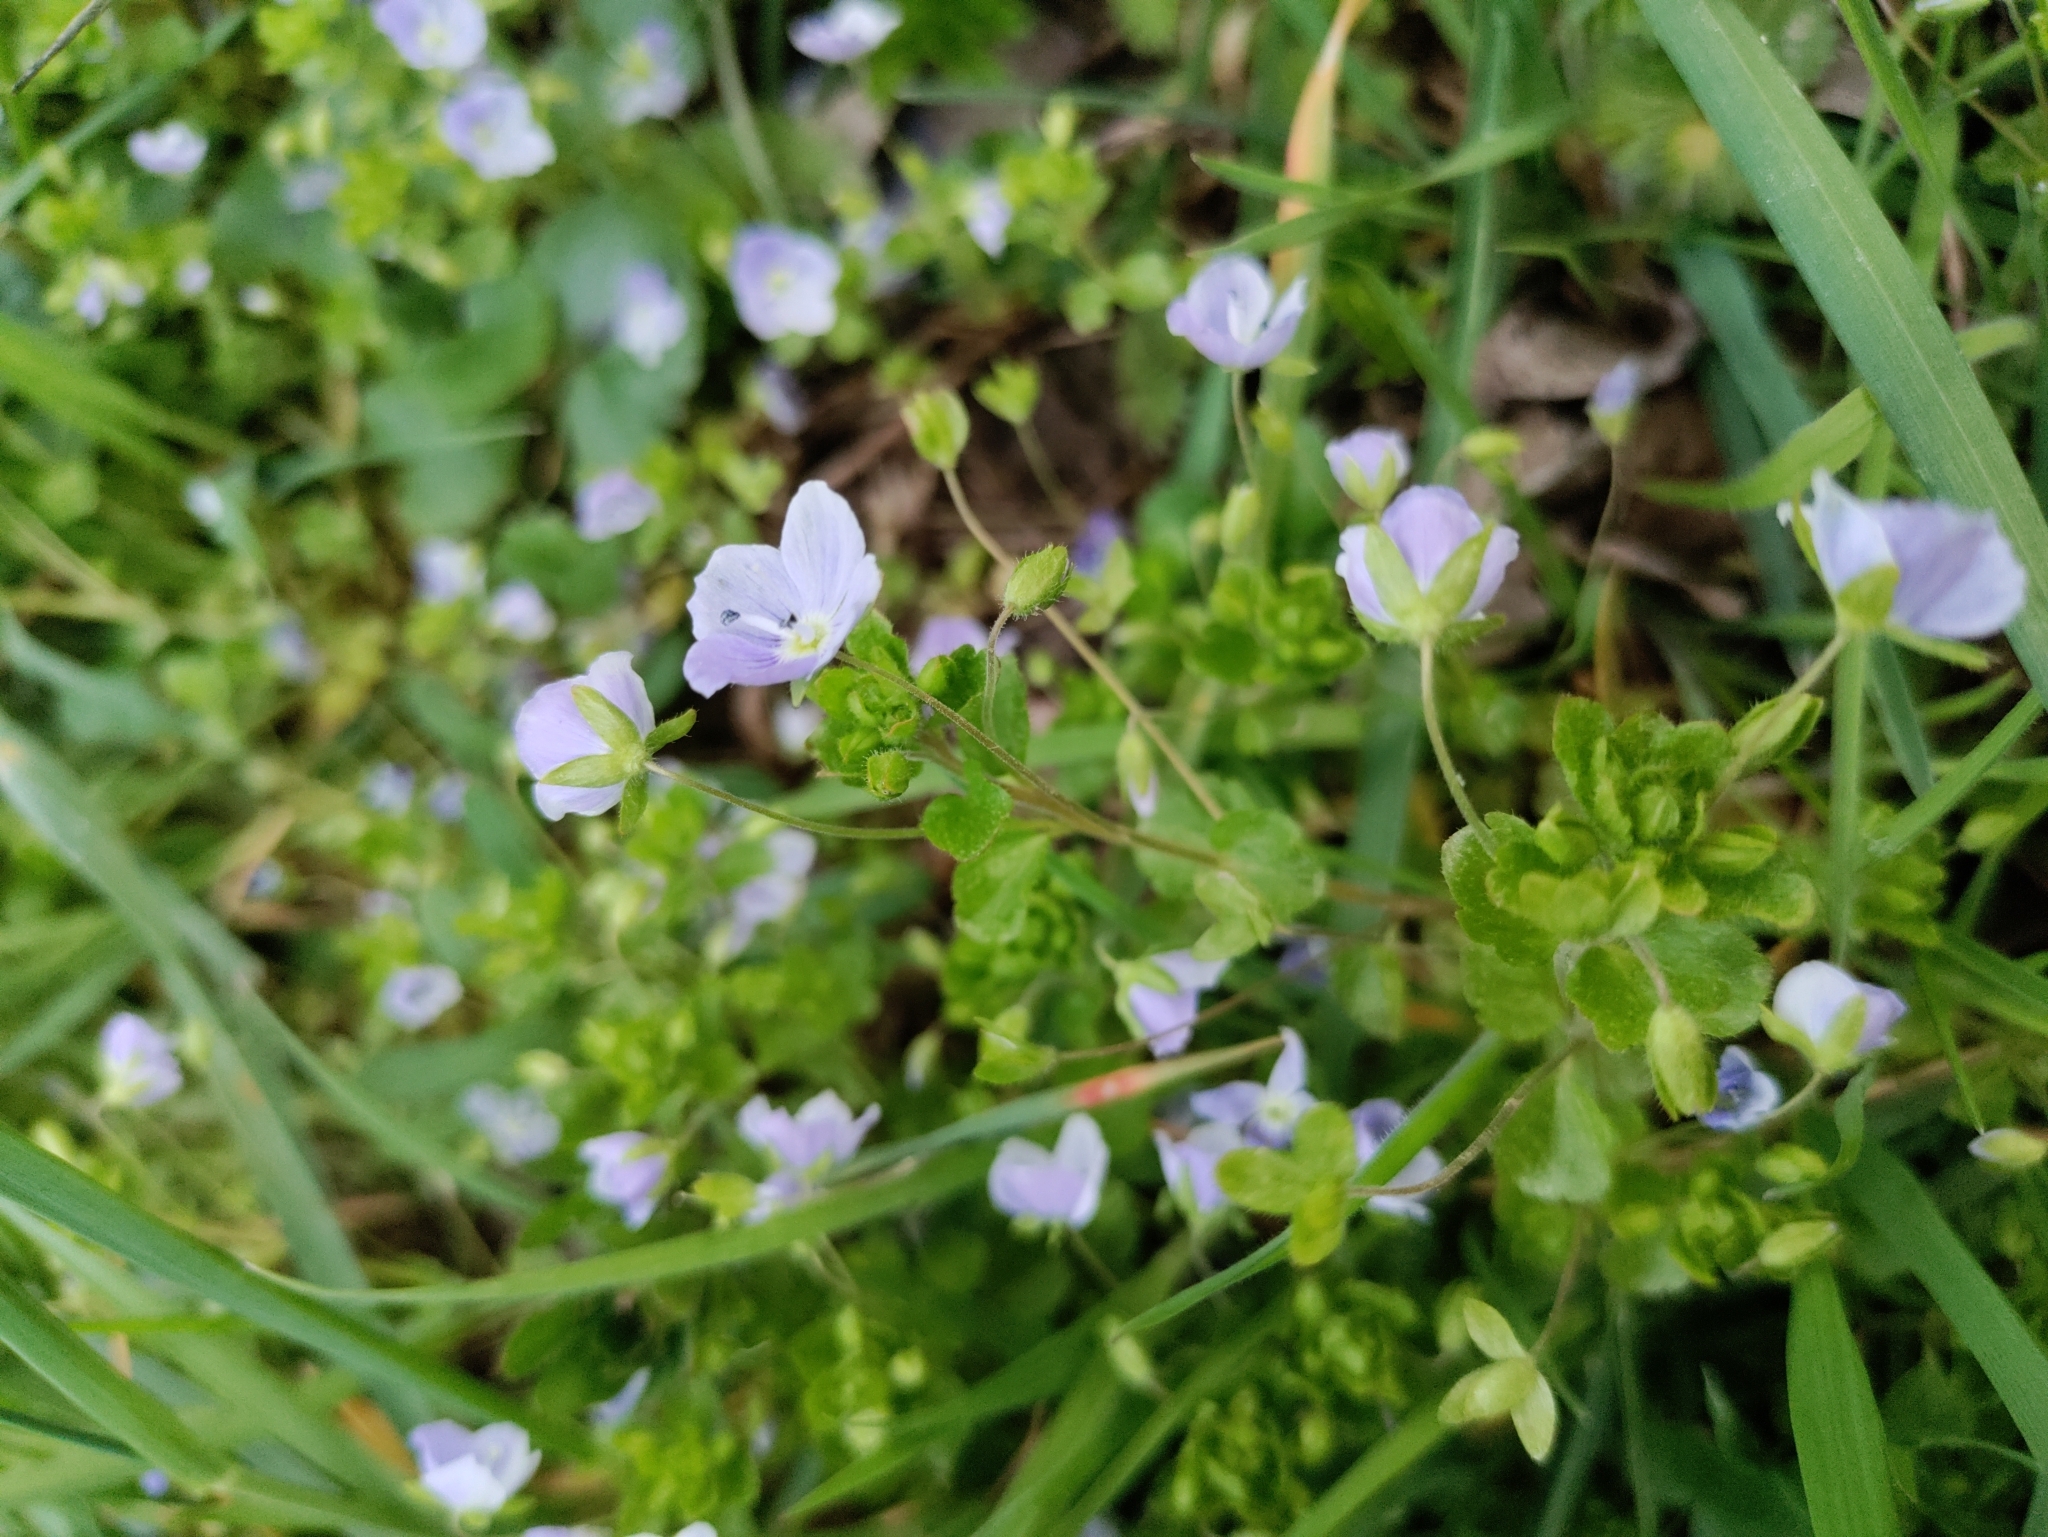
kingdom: Plantae
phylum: Tracheophyta
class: Magnoliopsida
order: Lamiales
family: Plantaginaceae
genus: Veronica
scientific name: Veronica filiformis
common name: Slender speedwell
